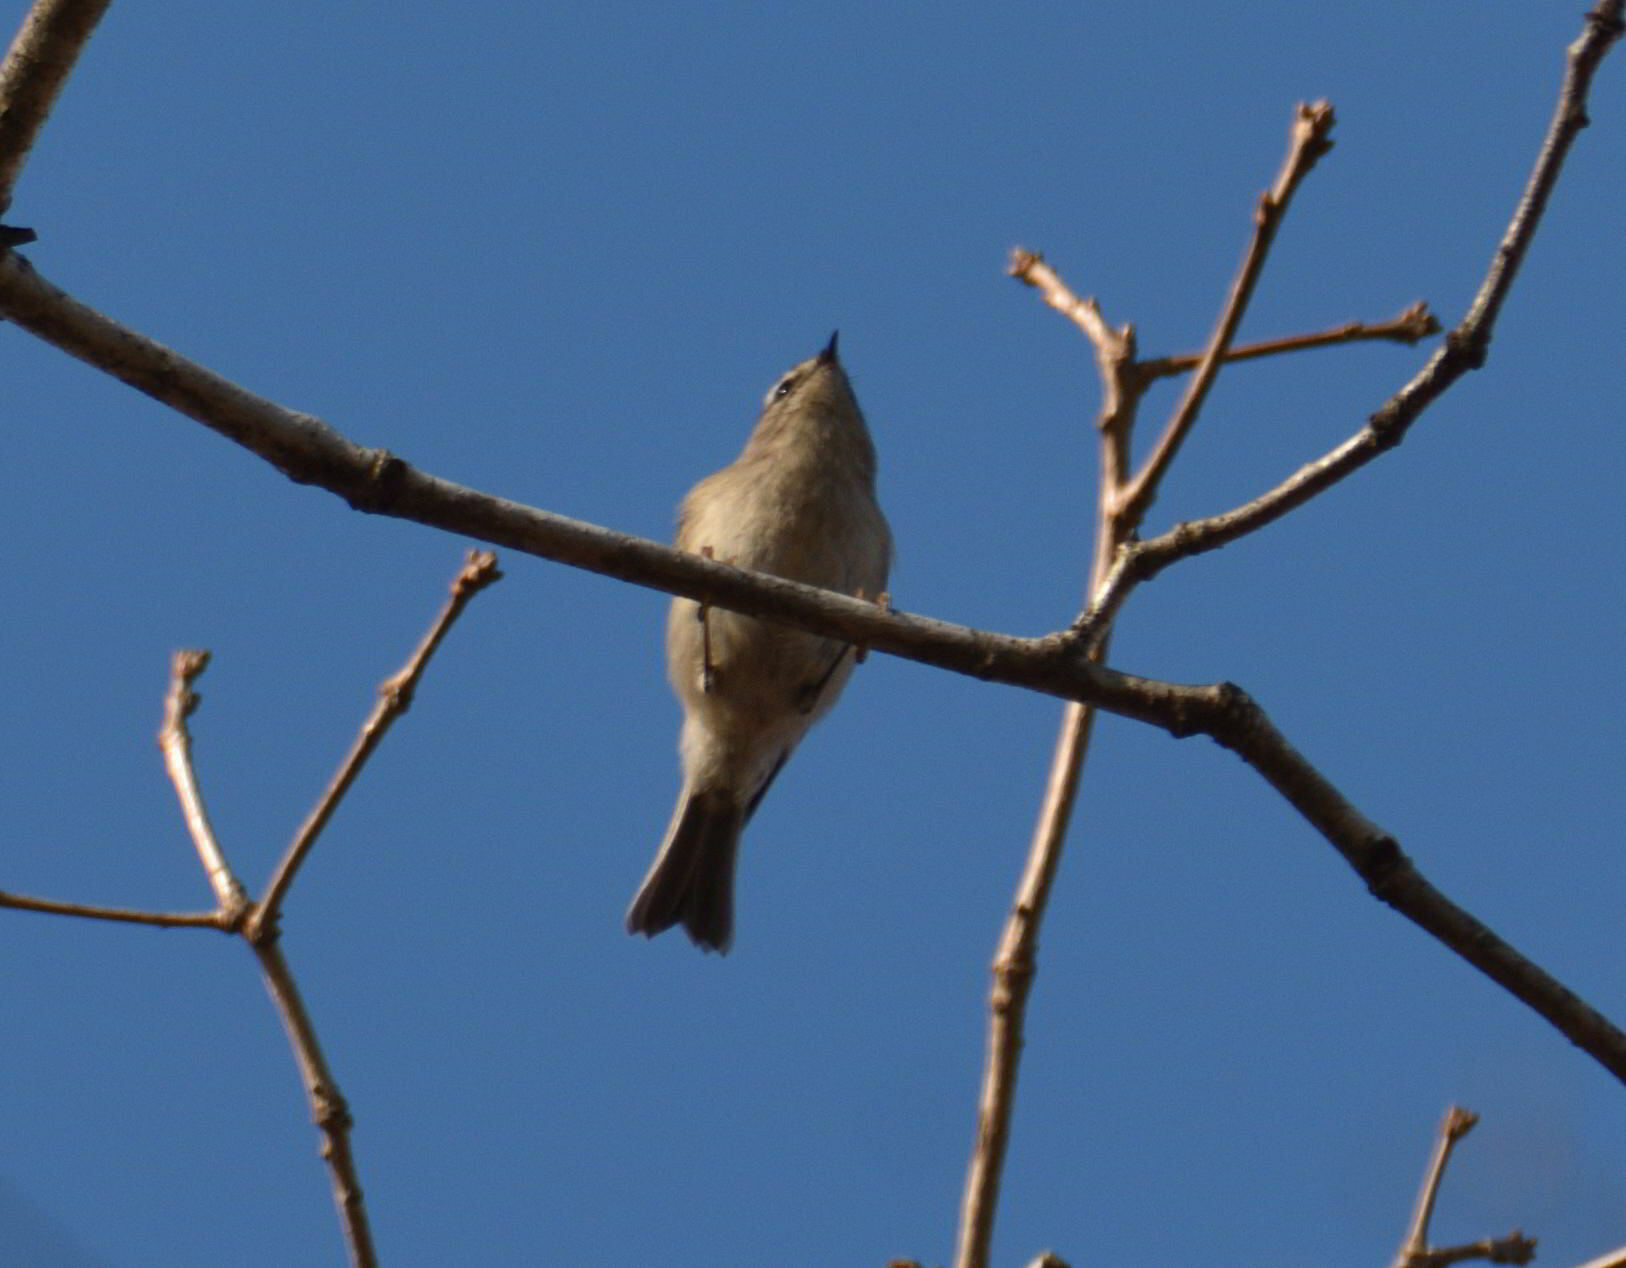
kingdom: Animalia
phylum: Chordata
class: Aves
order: Passeriformes
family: Regulidae
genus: Regulus
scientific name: Regulus satrapa
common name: Golden-crowned kinglet
